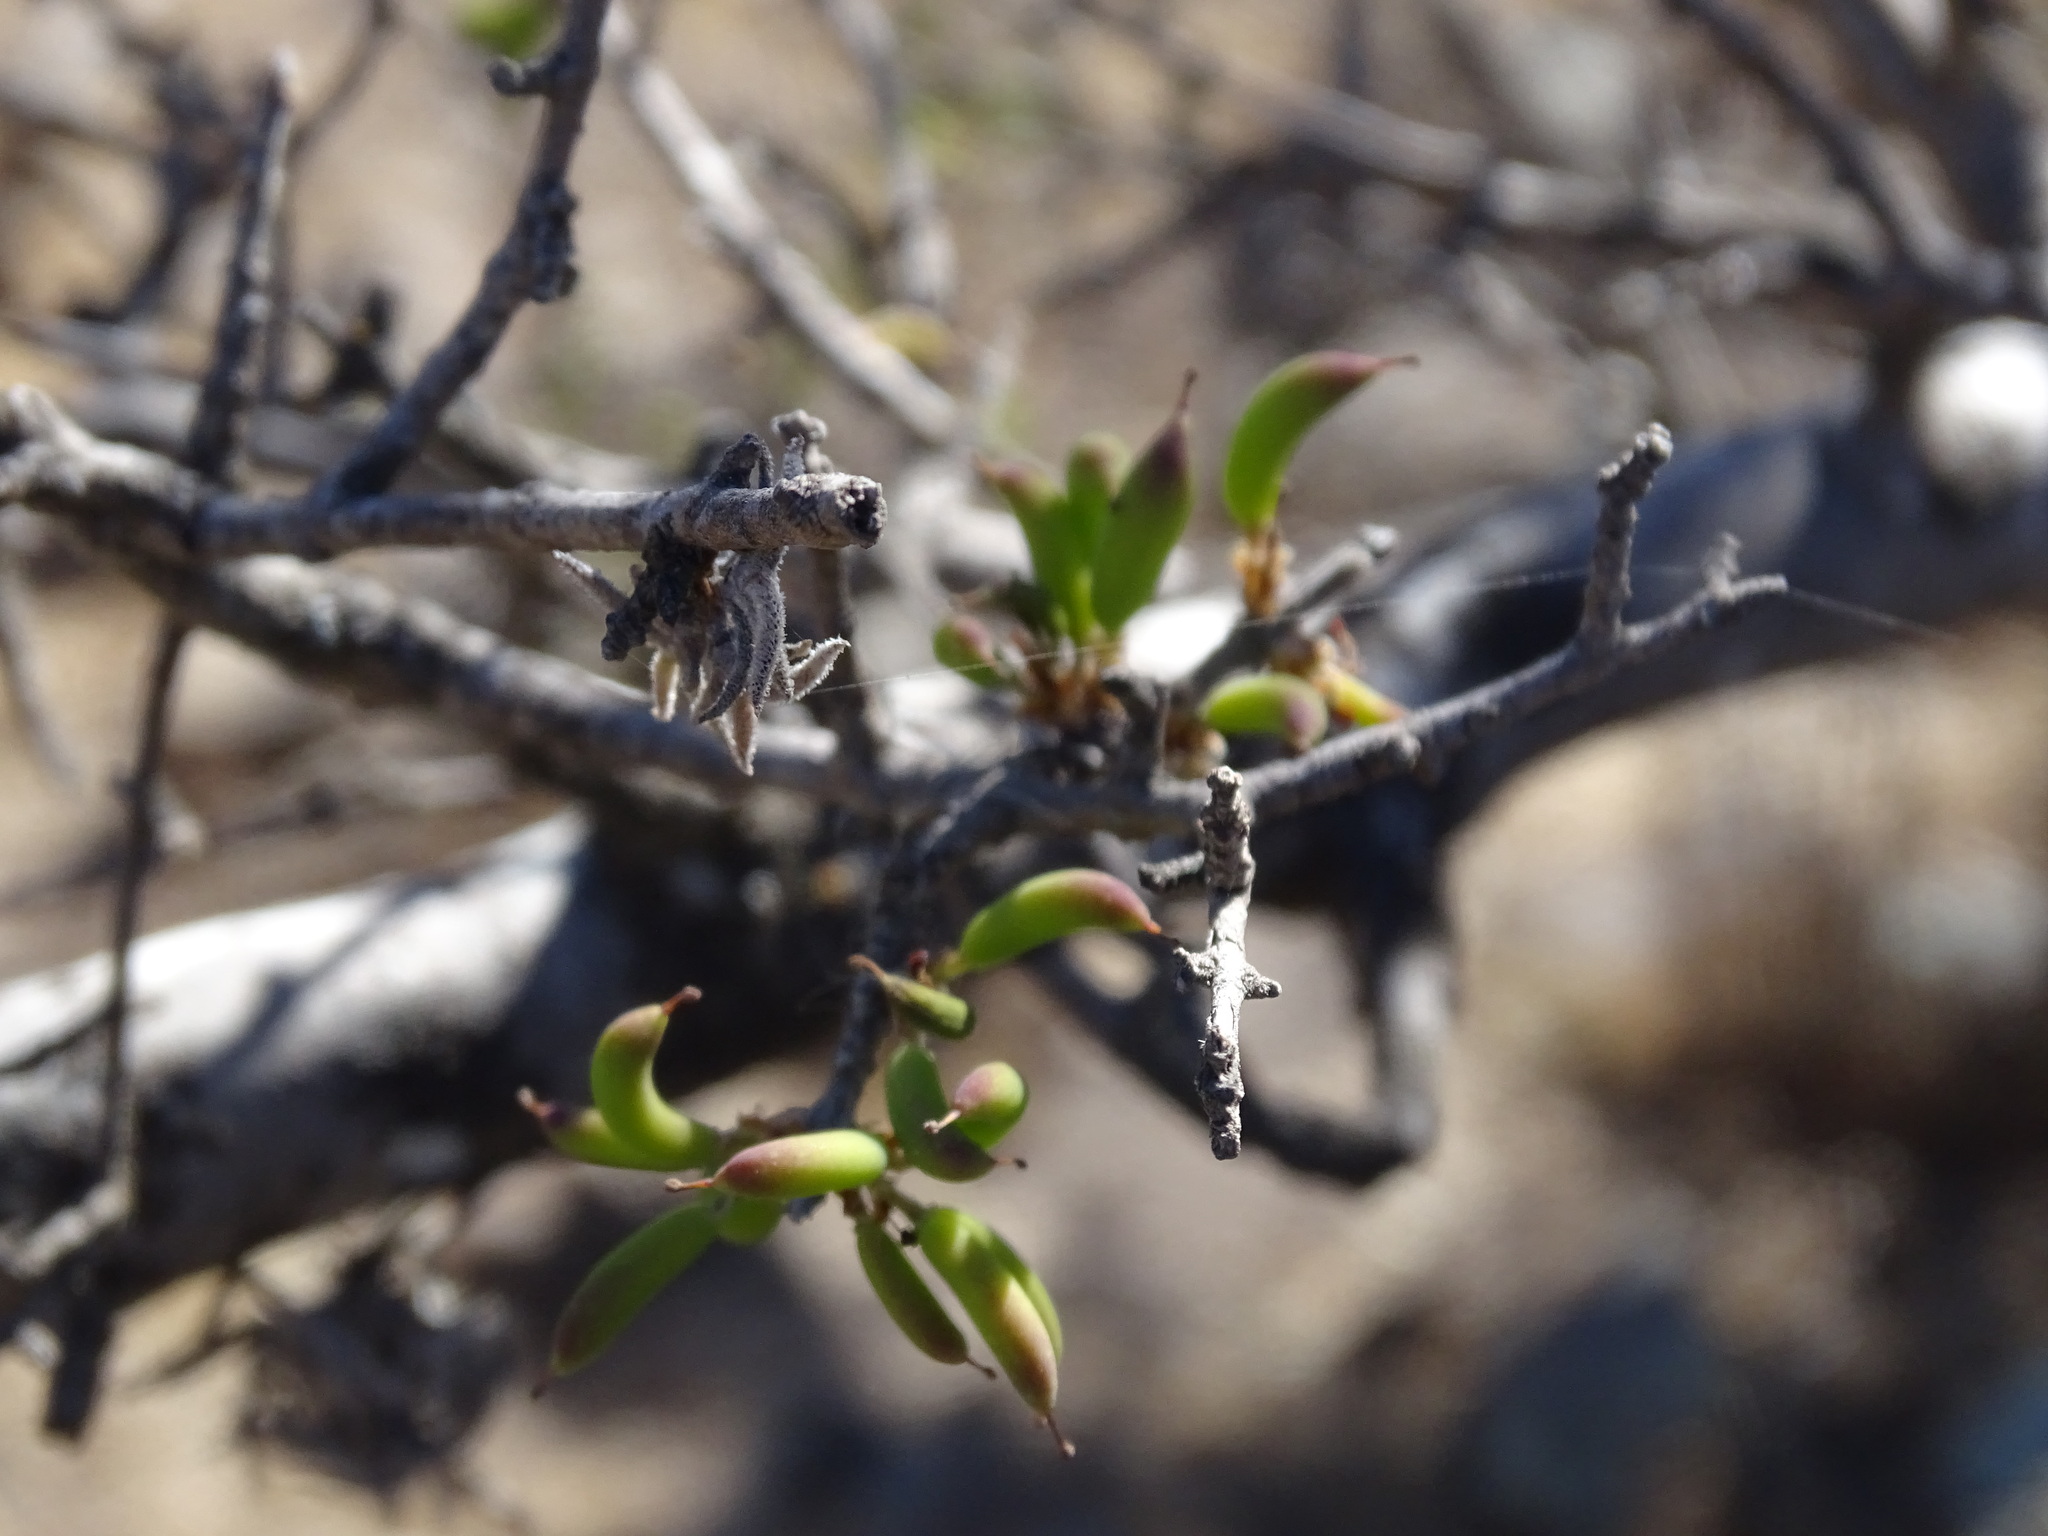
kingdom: Plantae
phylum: Tracheophyta
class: Magnoliopsida
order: Lamiales
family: Oleaceae
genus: Forestiera
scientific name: Forestiera phillyreoides
